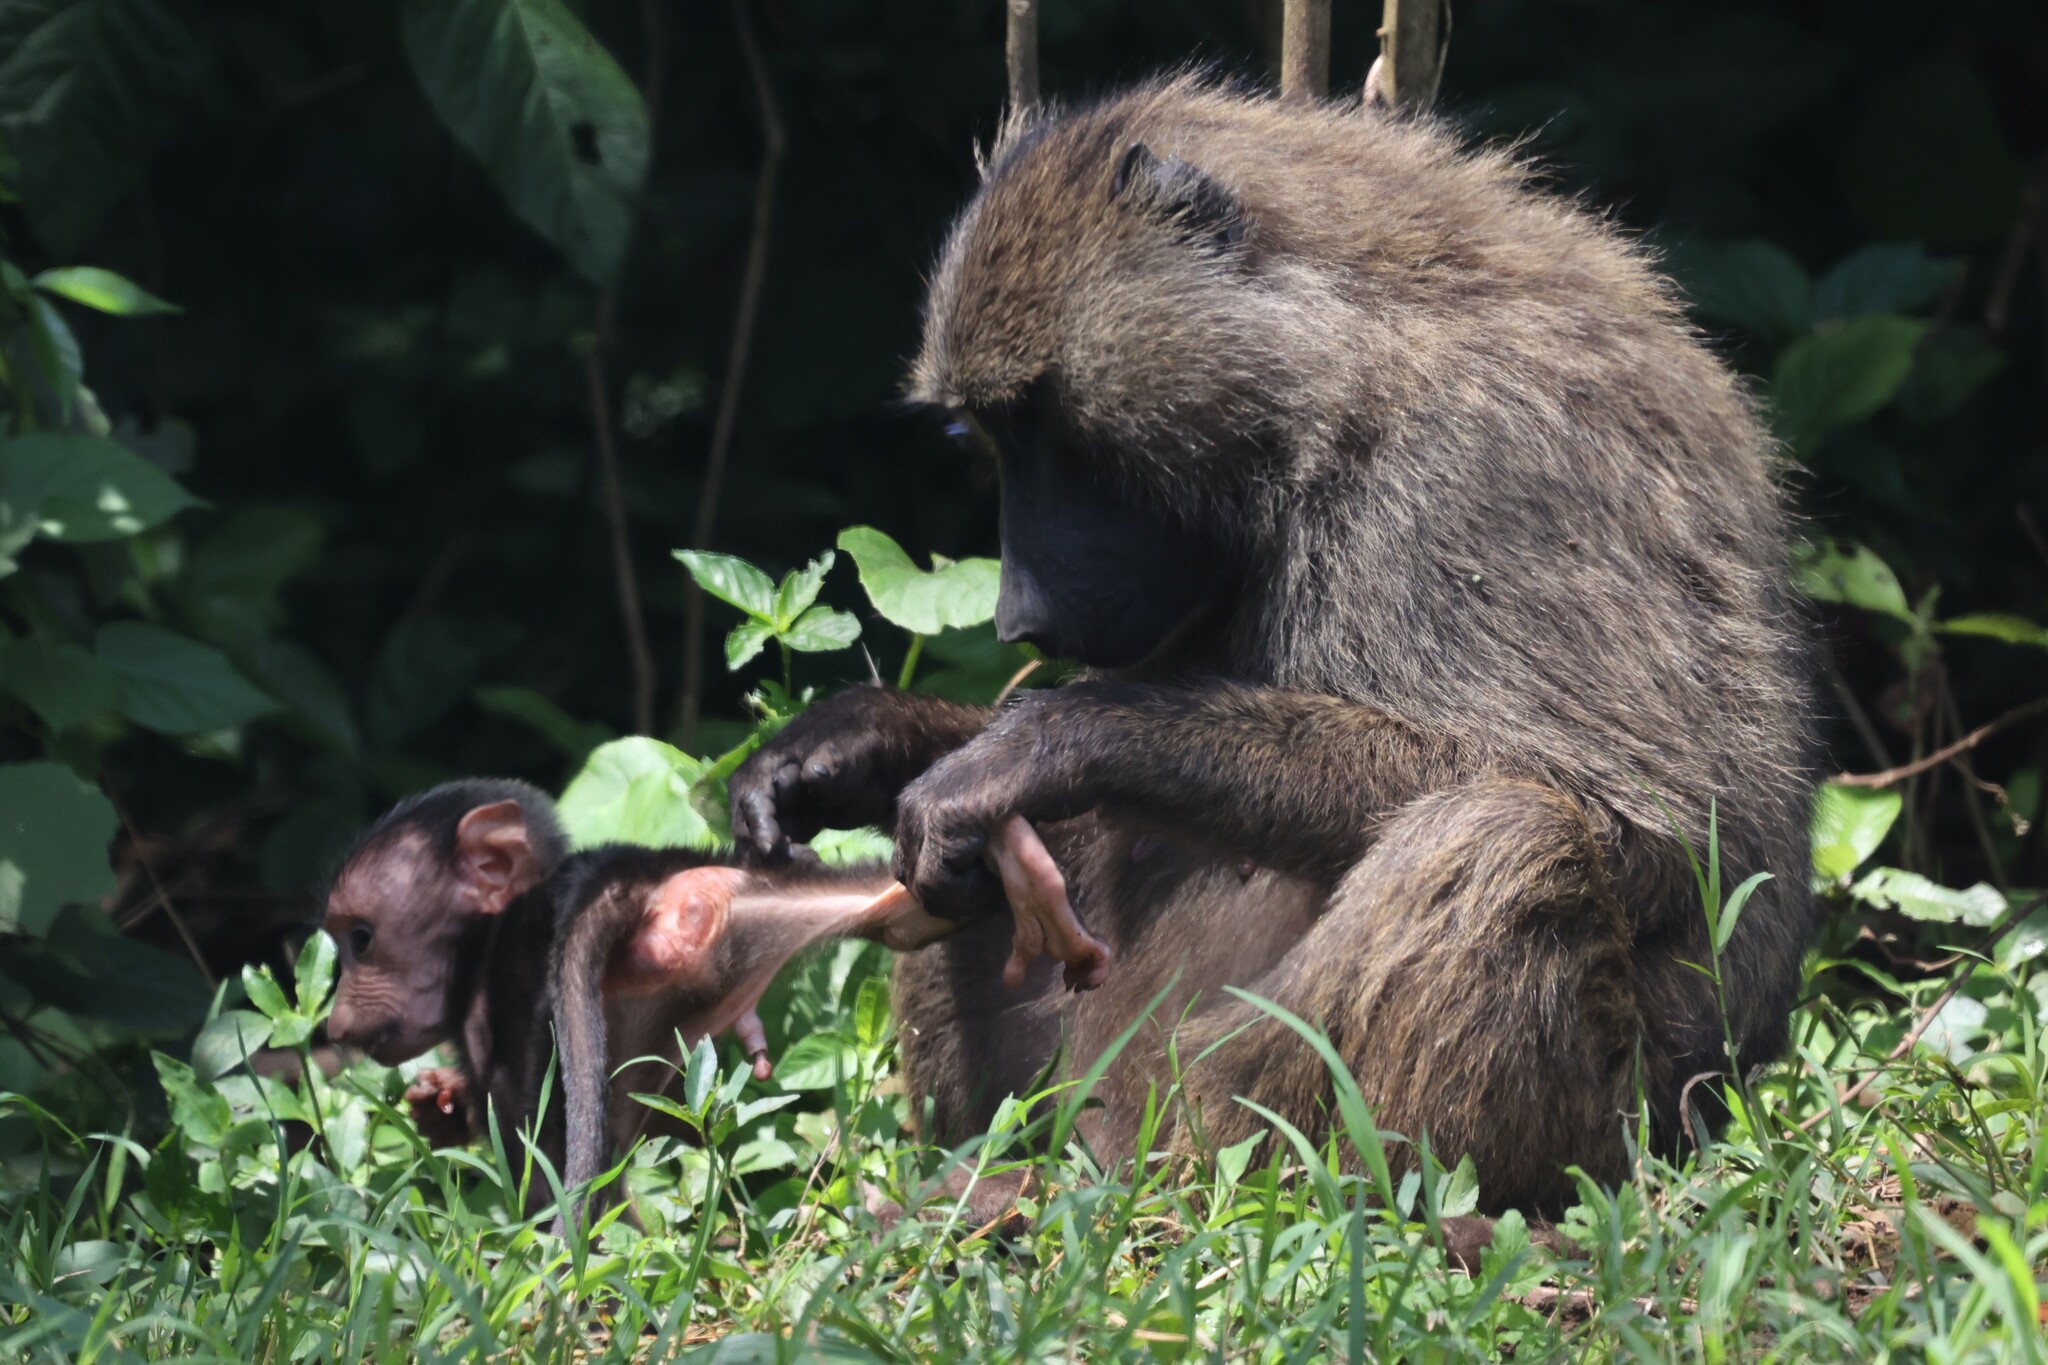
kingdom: Animalia
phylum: Chordata
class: Mammalia
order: Primates
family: Cercopithecidae
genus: Papio
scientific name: Papio anubis
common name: Olive baboon
